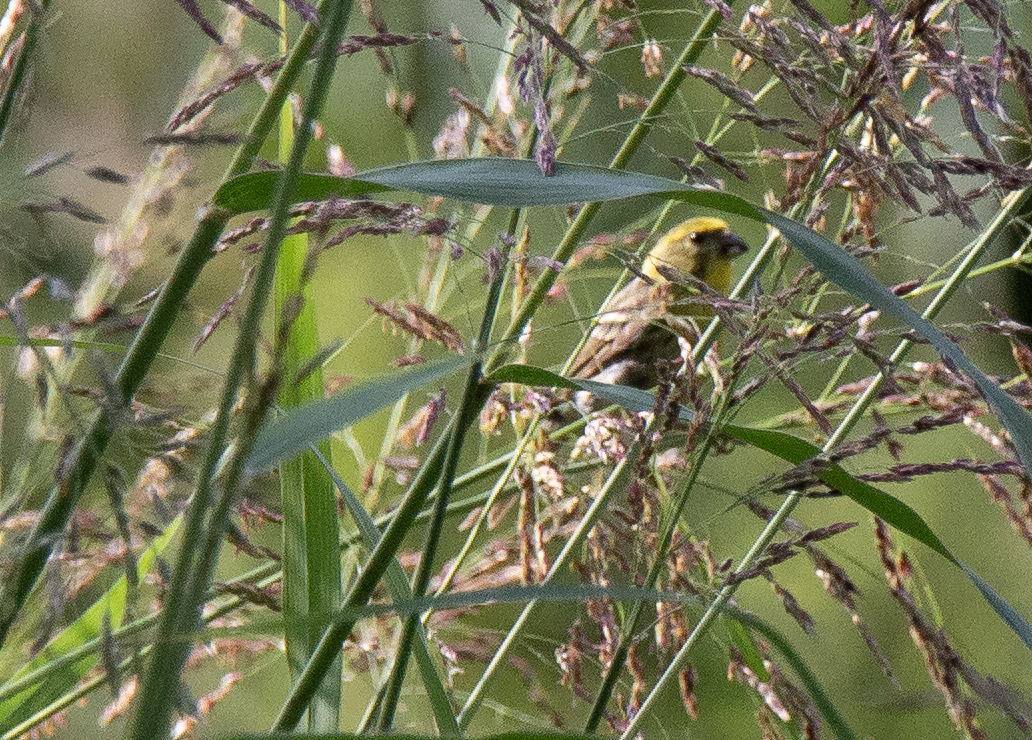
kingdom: Animalia
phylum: Chordata
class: Aves
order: Passeriformes
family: Fringillidae
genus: Serinus
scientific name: Serinus serinus
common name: European serin
